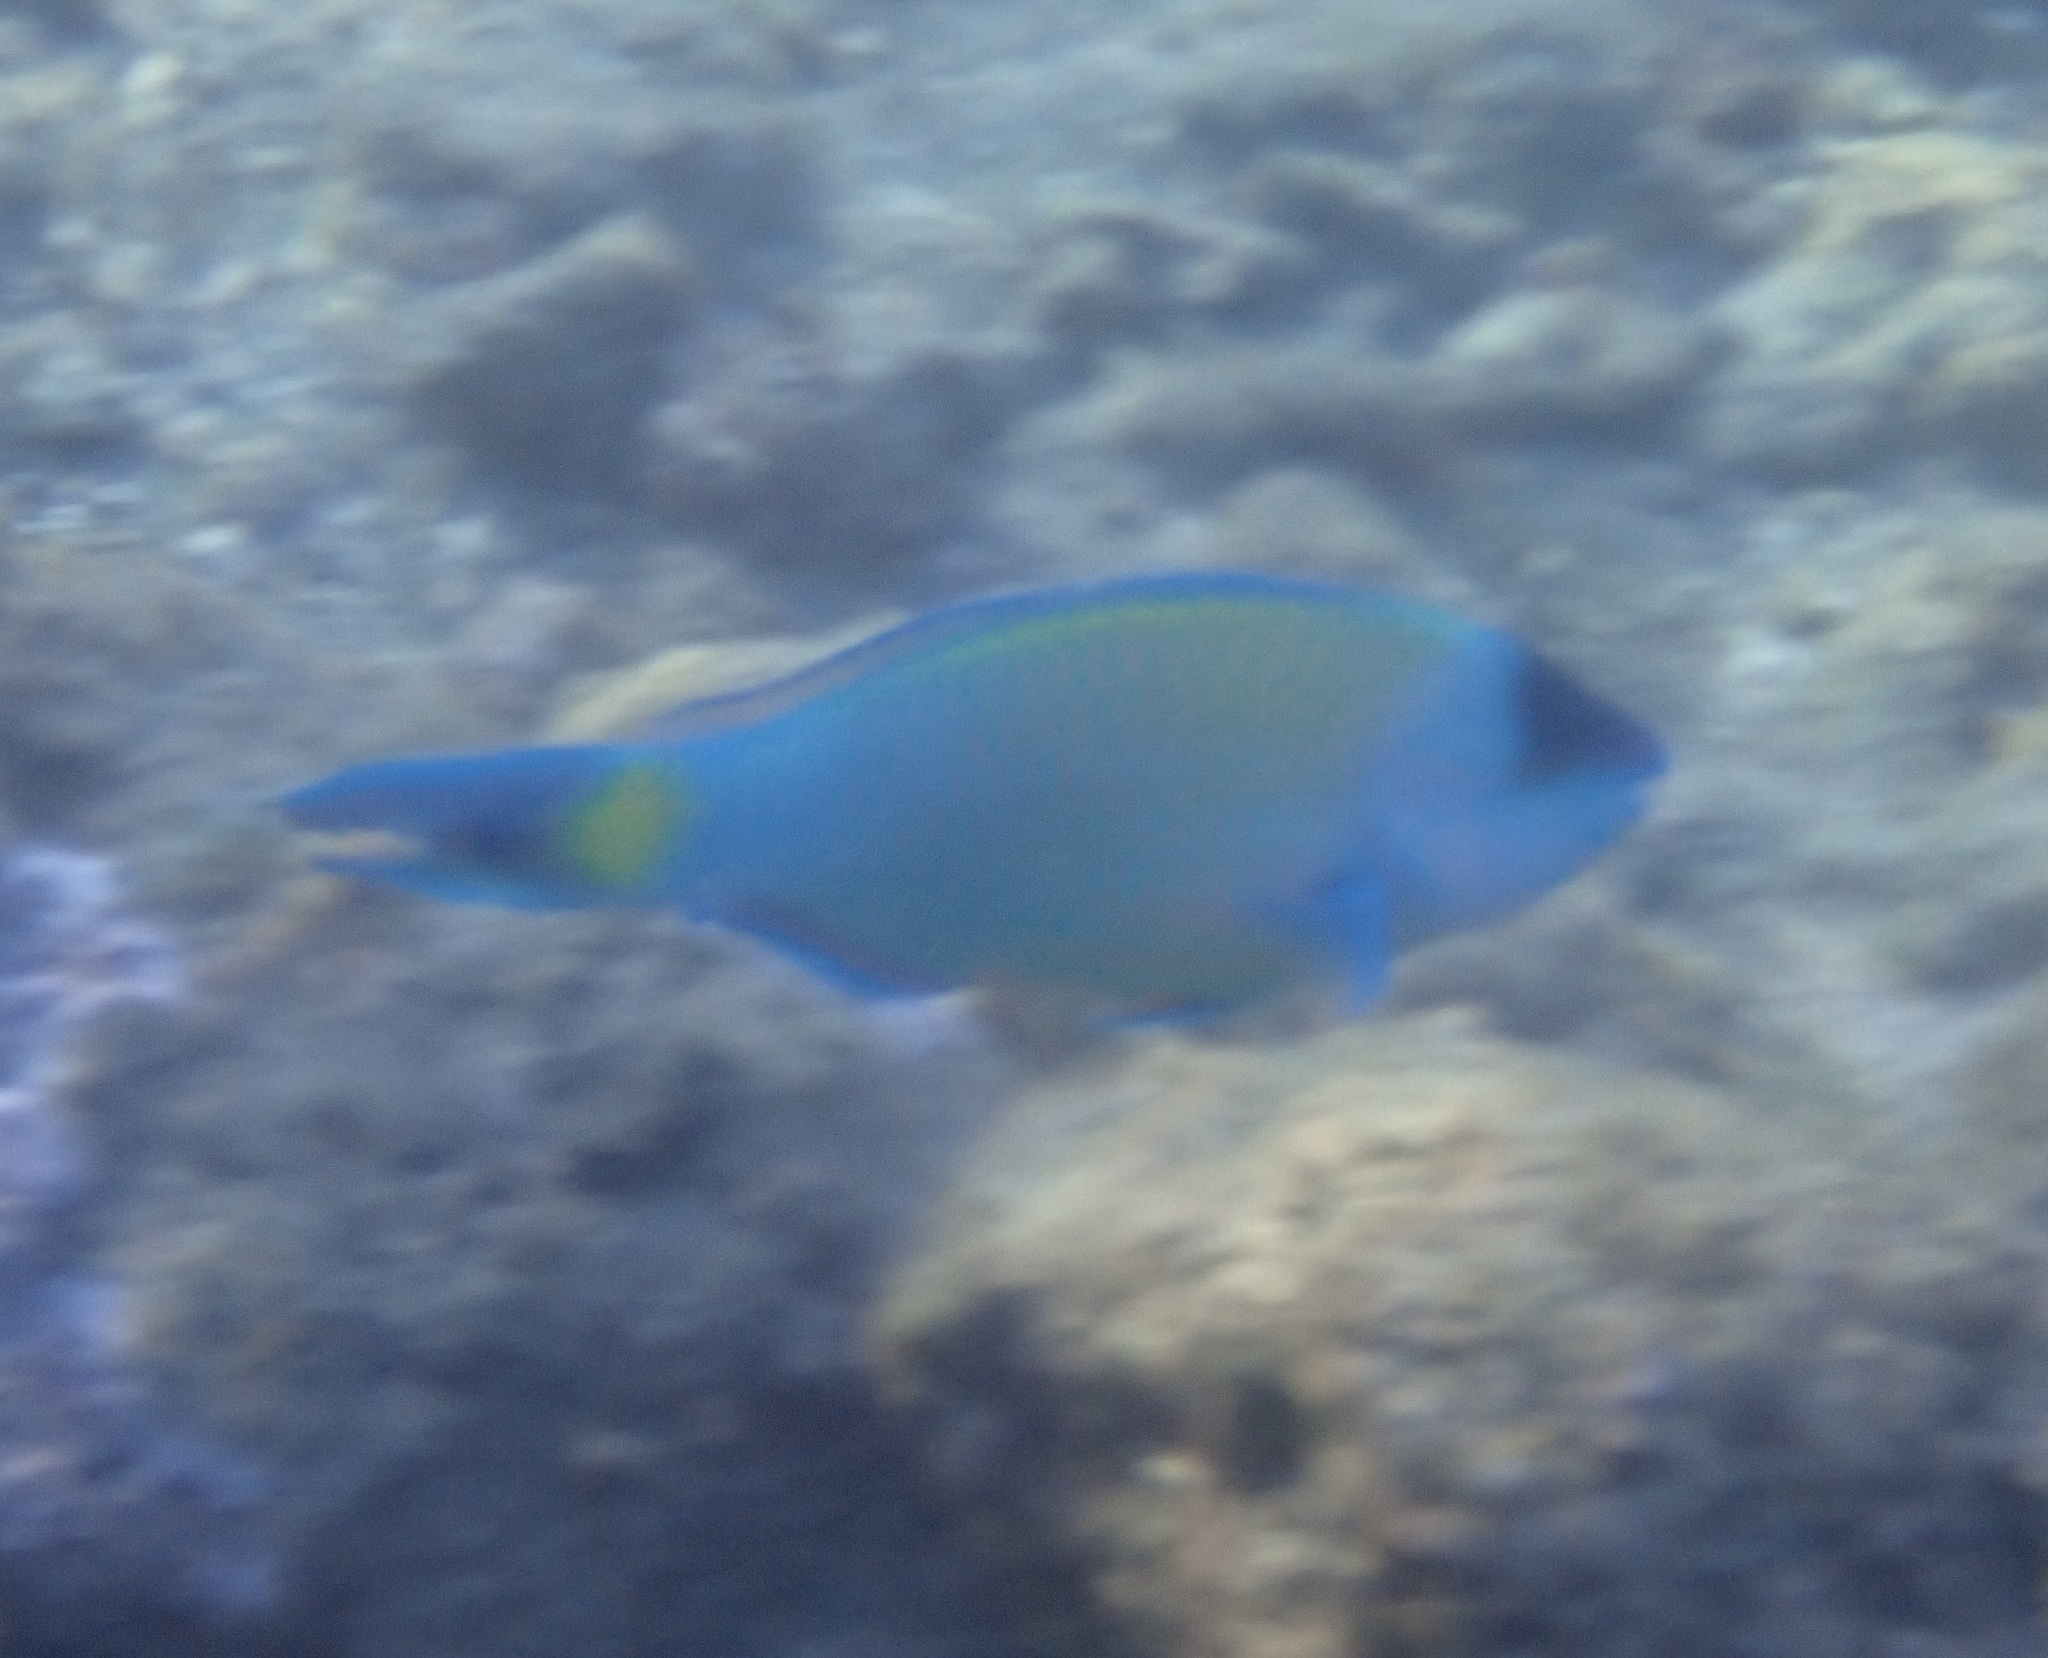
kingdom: Animalia
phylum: Chordata
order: Perciformes
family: Scaridae
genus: Scarus
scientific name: Scarus psittacus
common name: Palenose parrotfish
